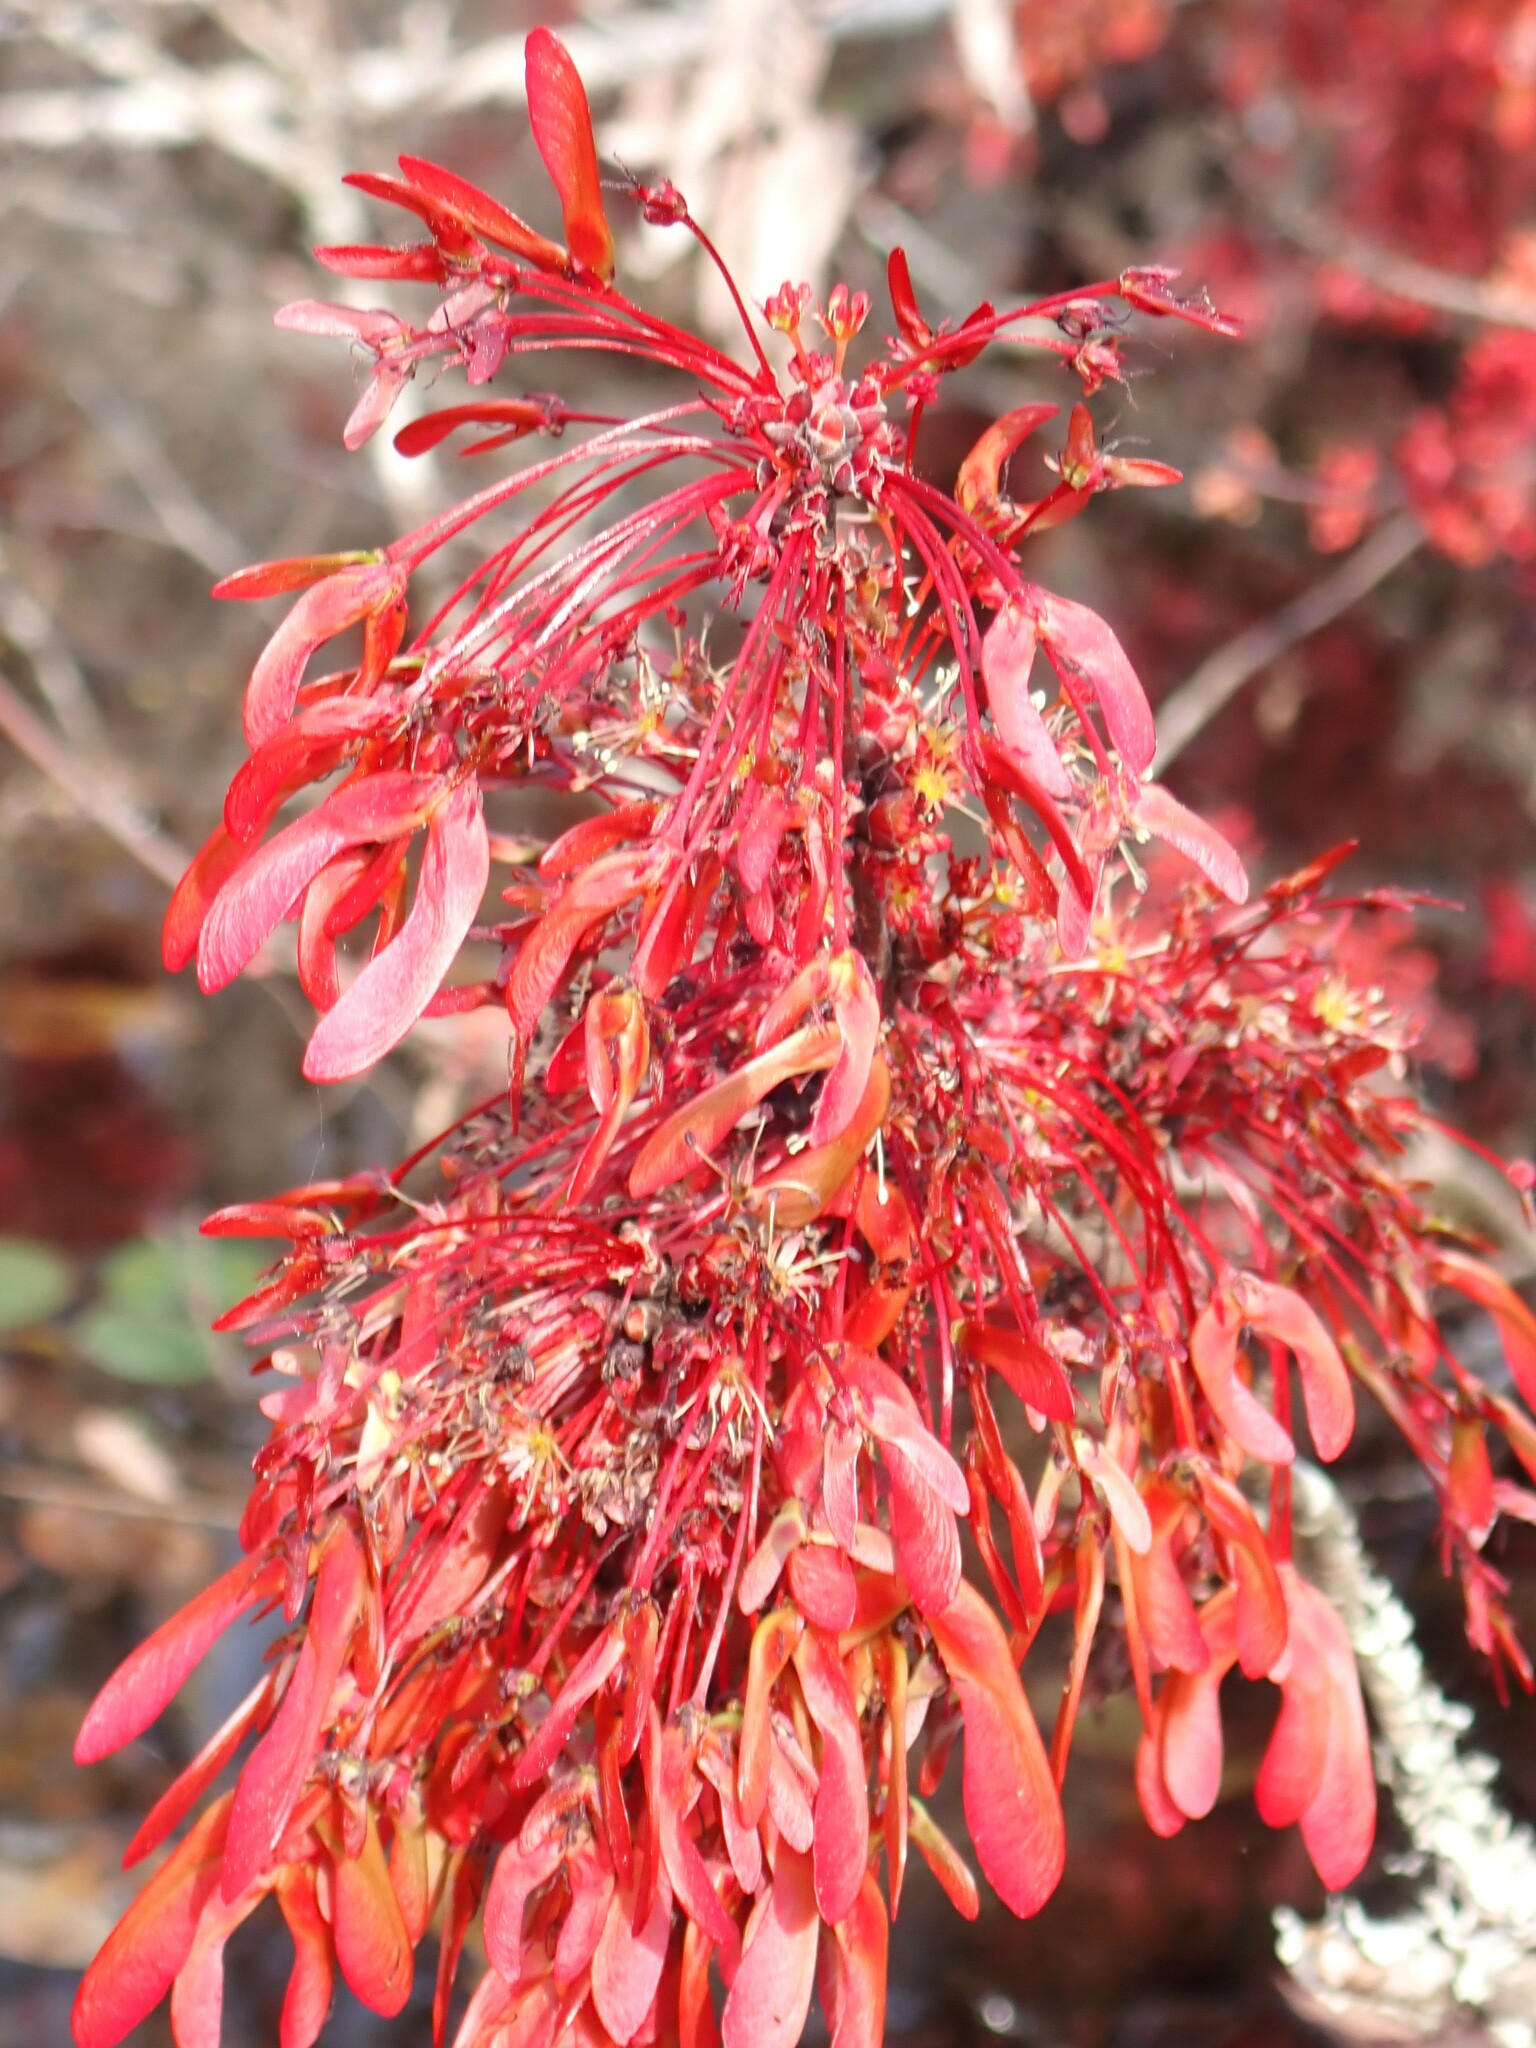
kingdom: Plantae
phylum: Tracheophyta
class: Magnoliopsida
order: Sapindales
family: Sapindaceae
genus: Acer
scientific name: Acer rubrum
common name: Red maple
